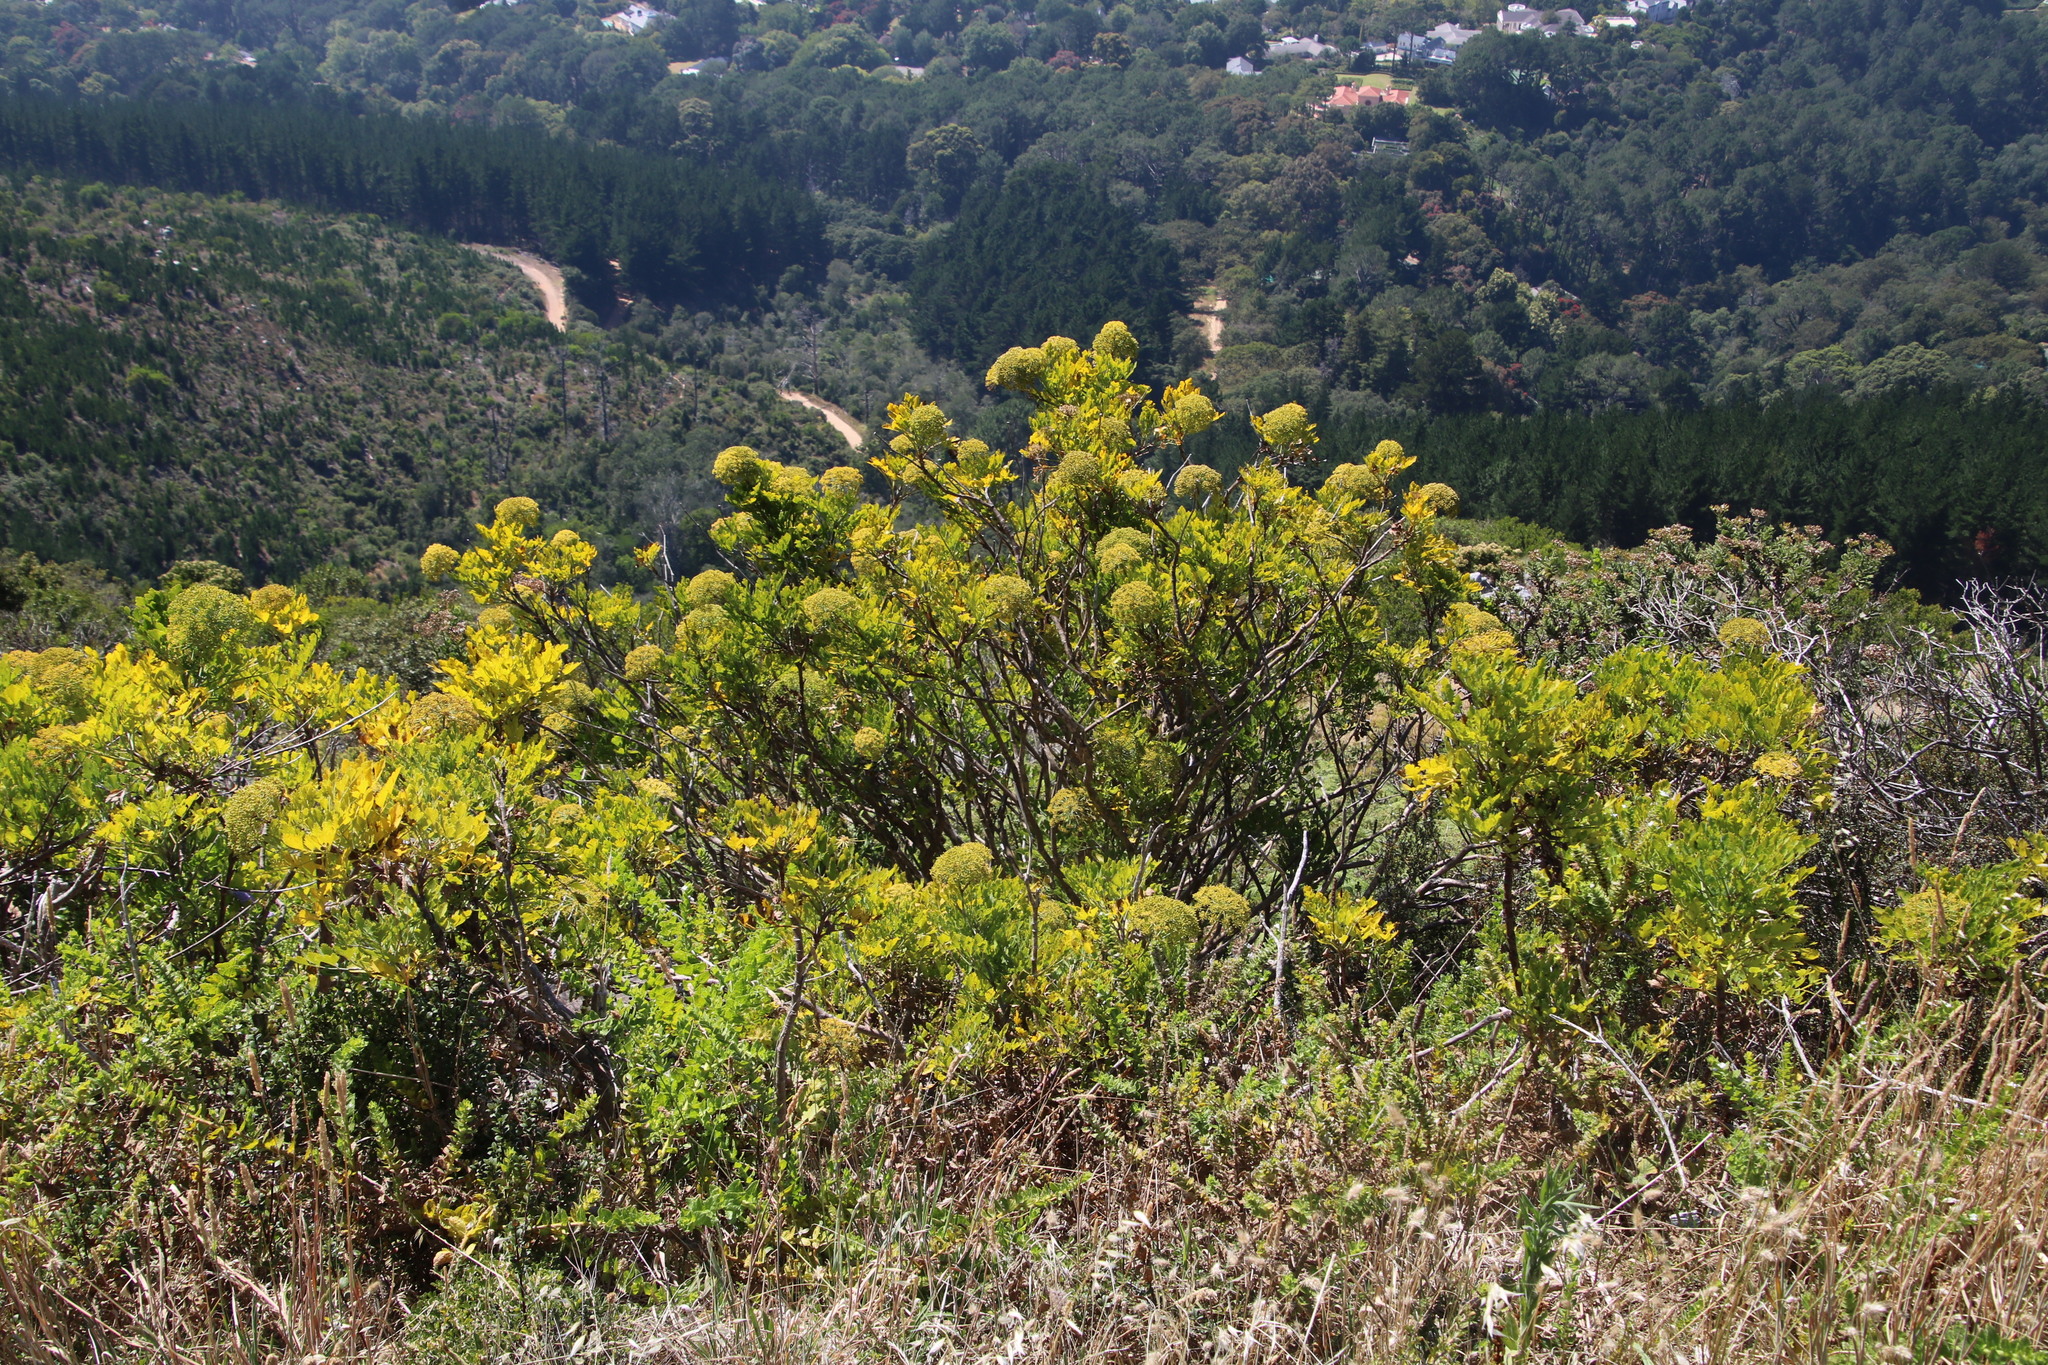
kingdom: Plantae
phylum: Tracheophyta
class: Magnoliopsida
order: Apiales
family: Apiaceae
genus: Notobubon
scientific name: Notobubon galbanum
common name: Blisterbush
